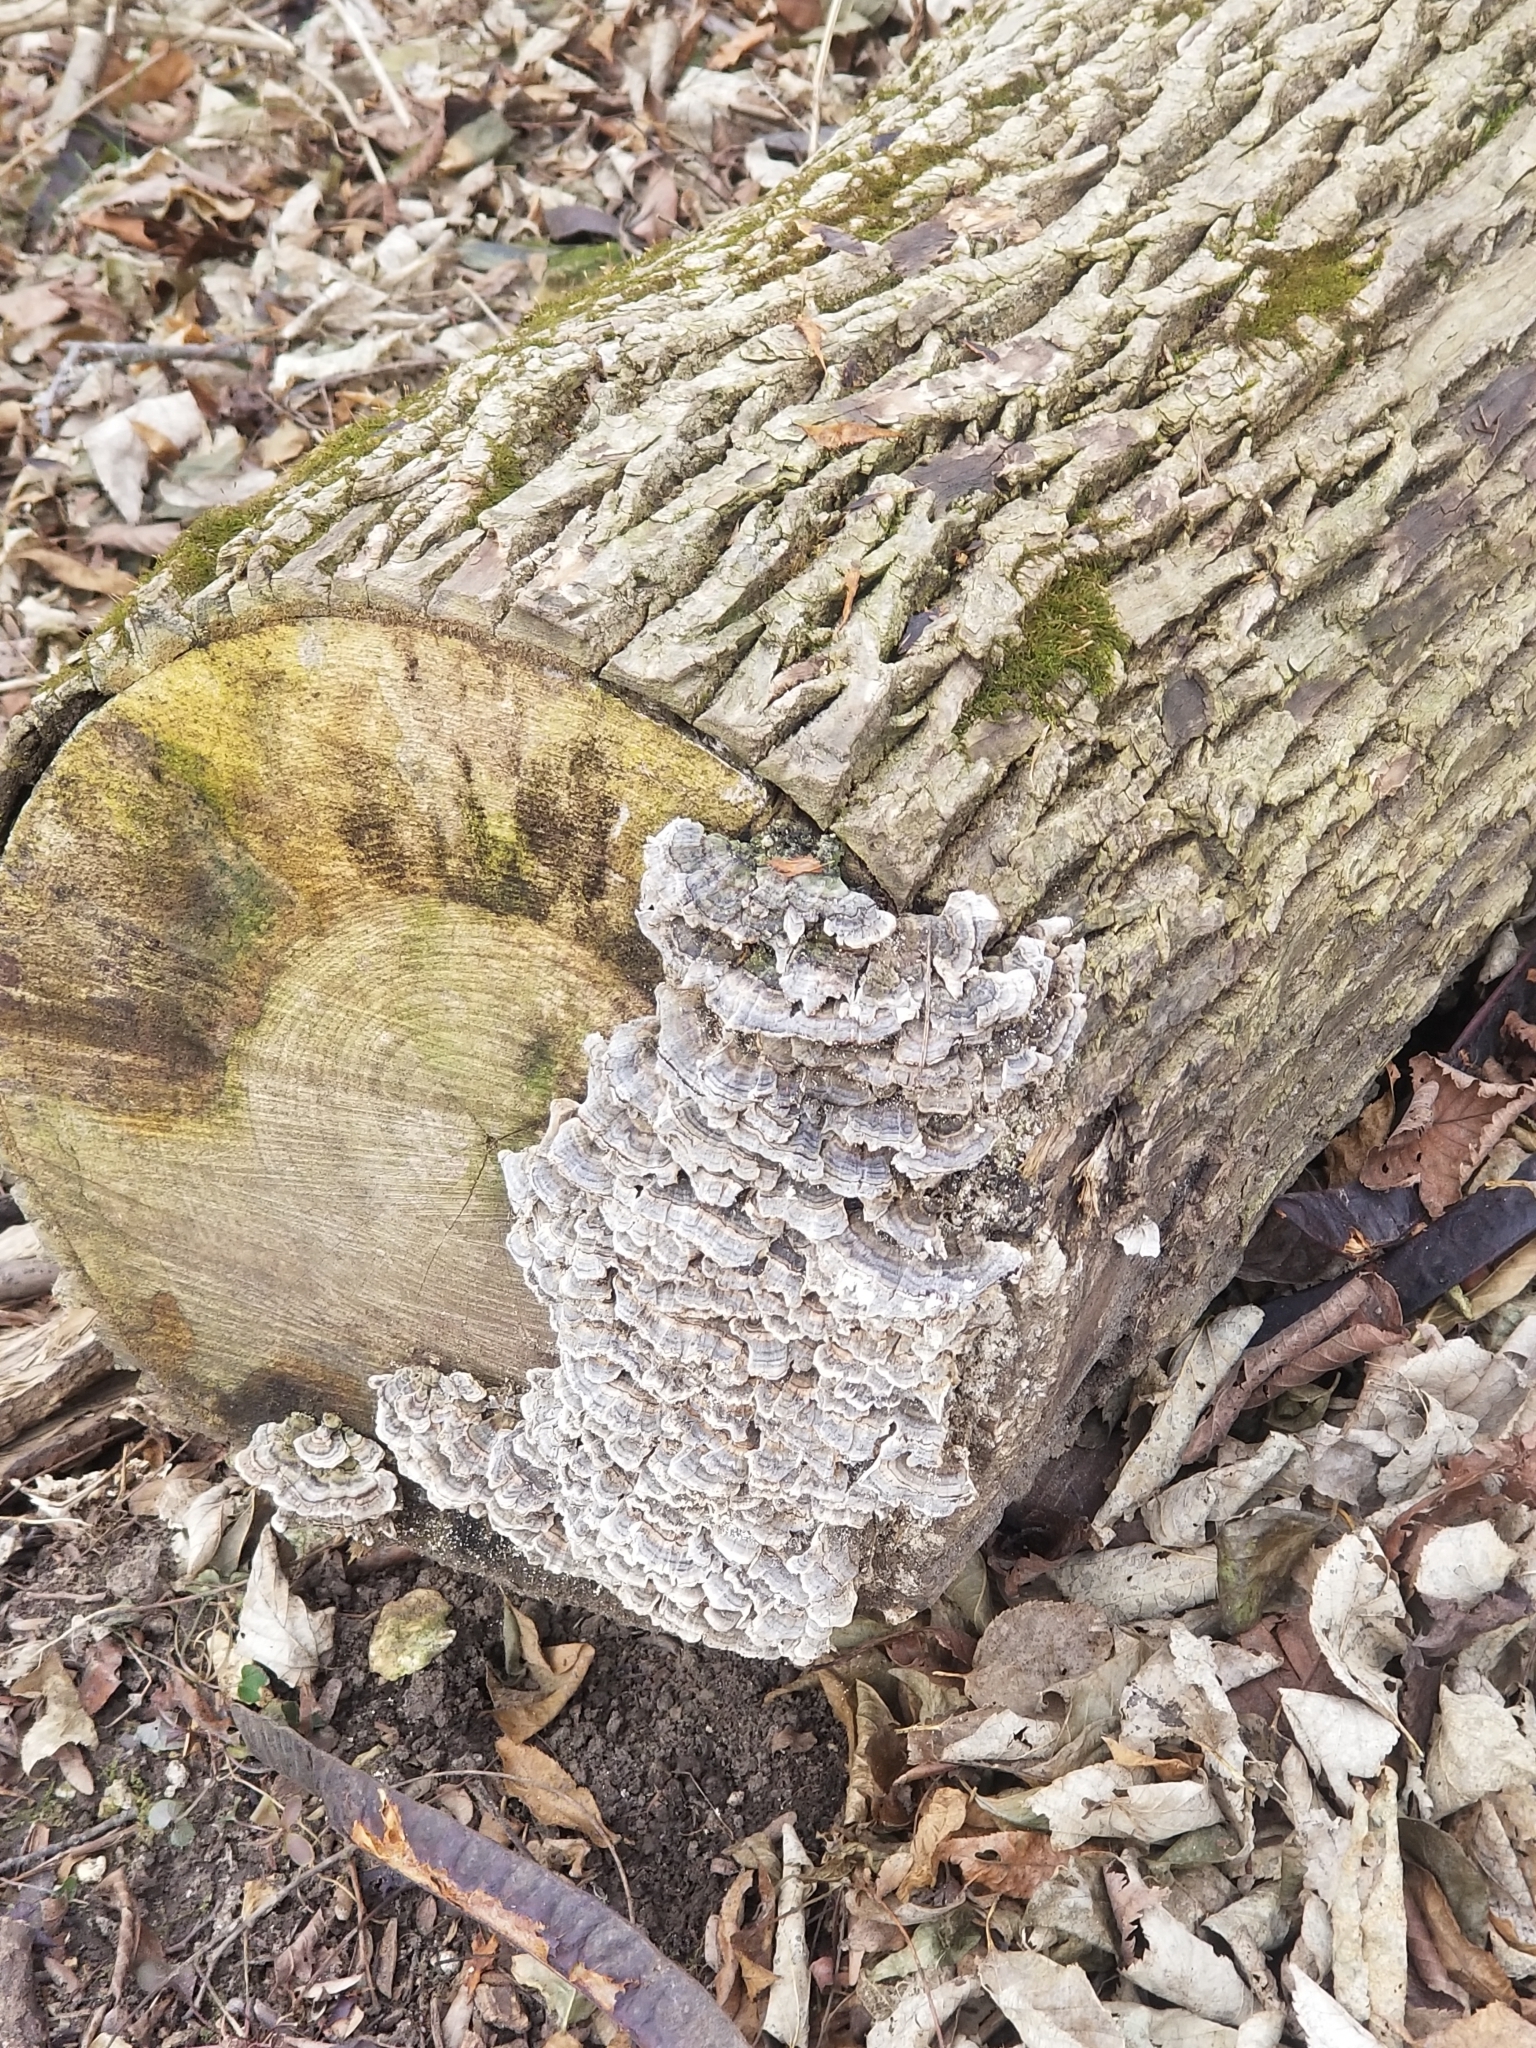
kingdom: Fungi
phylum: Basidiomycota
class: Agaricomycetes
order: Polyporales
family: Polyporaceae
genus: Trametes
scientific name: Trametes versicolor
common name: Turkeytail
